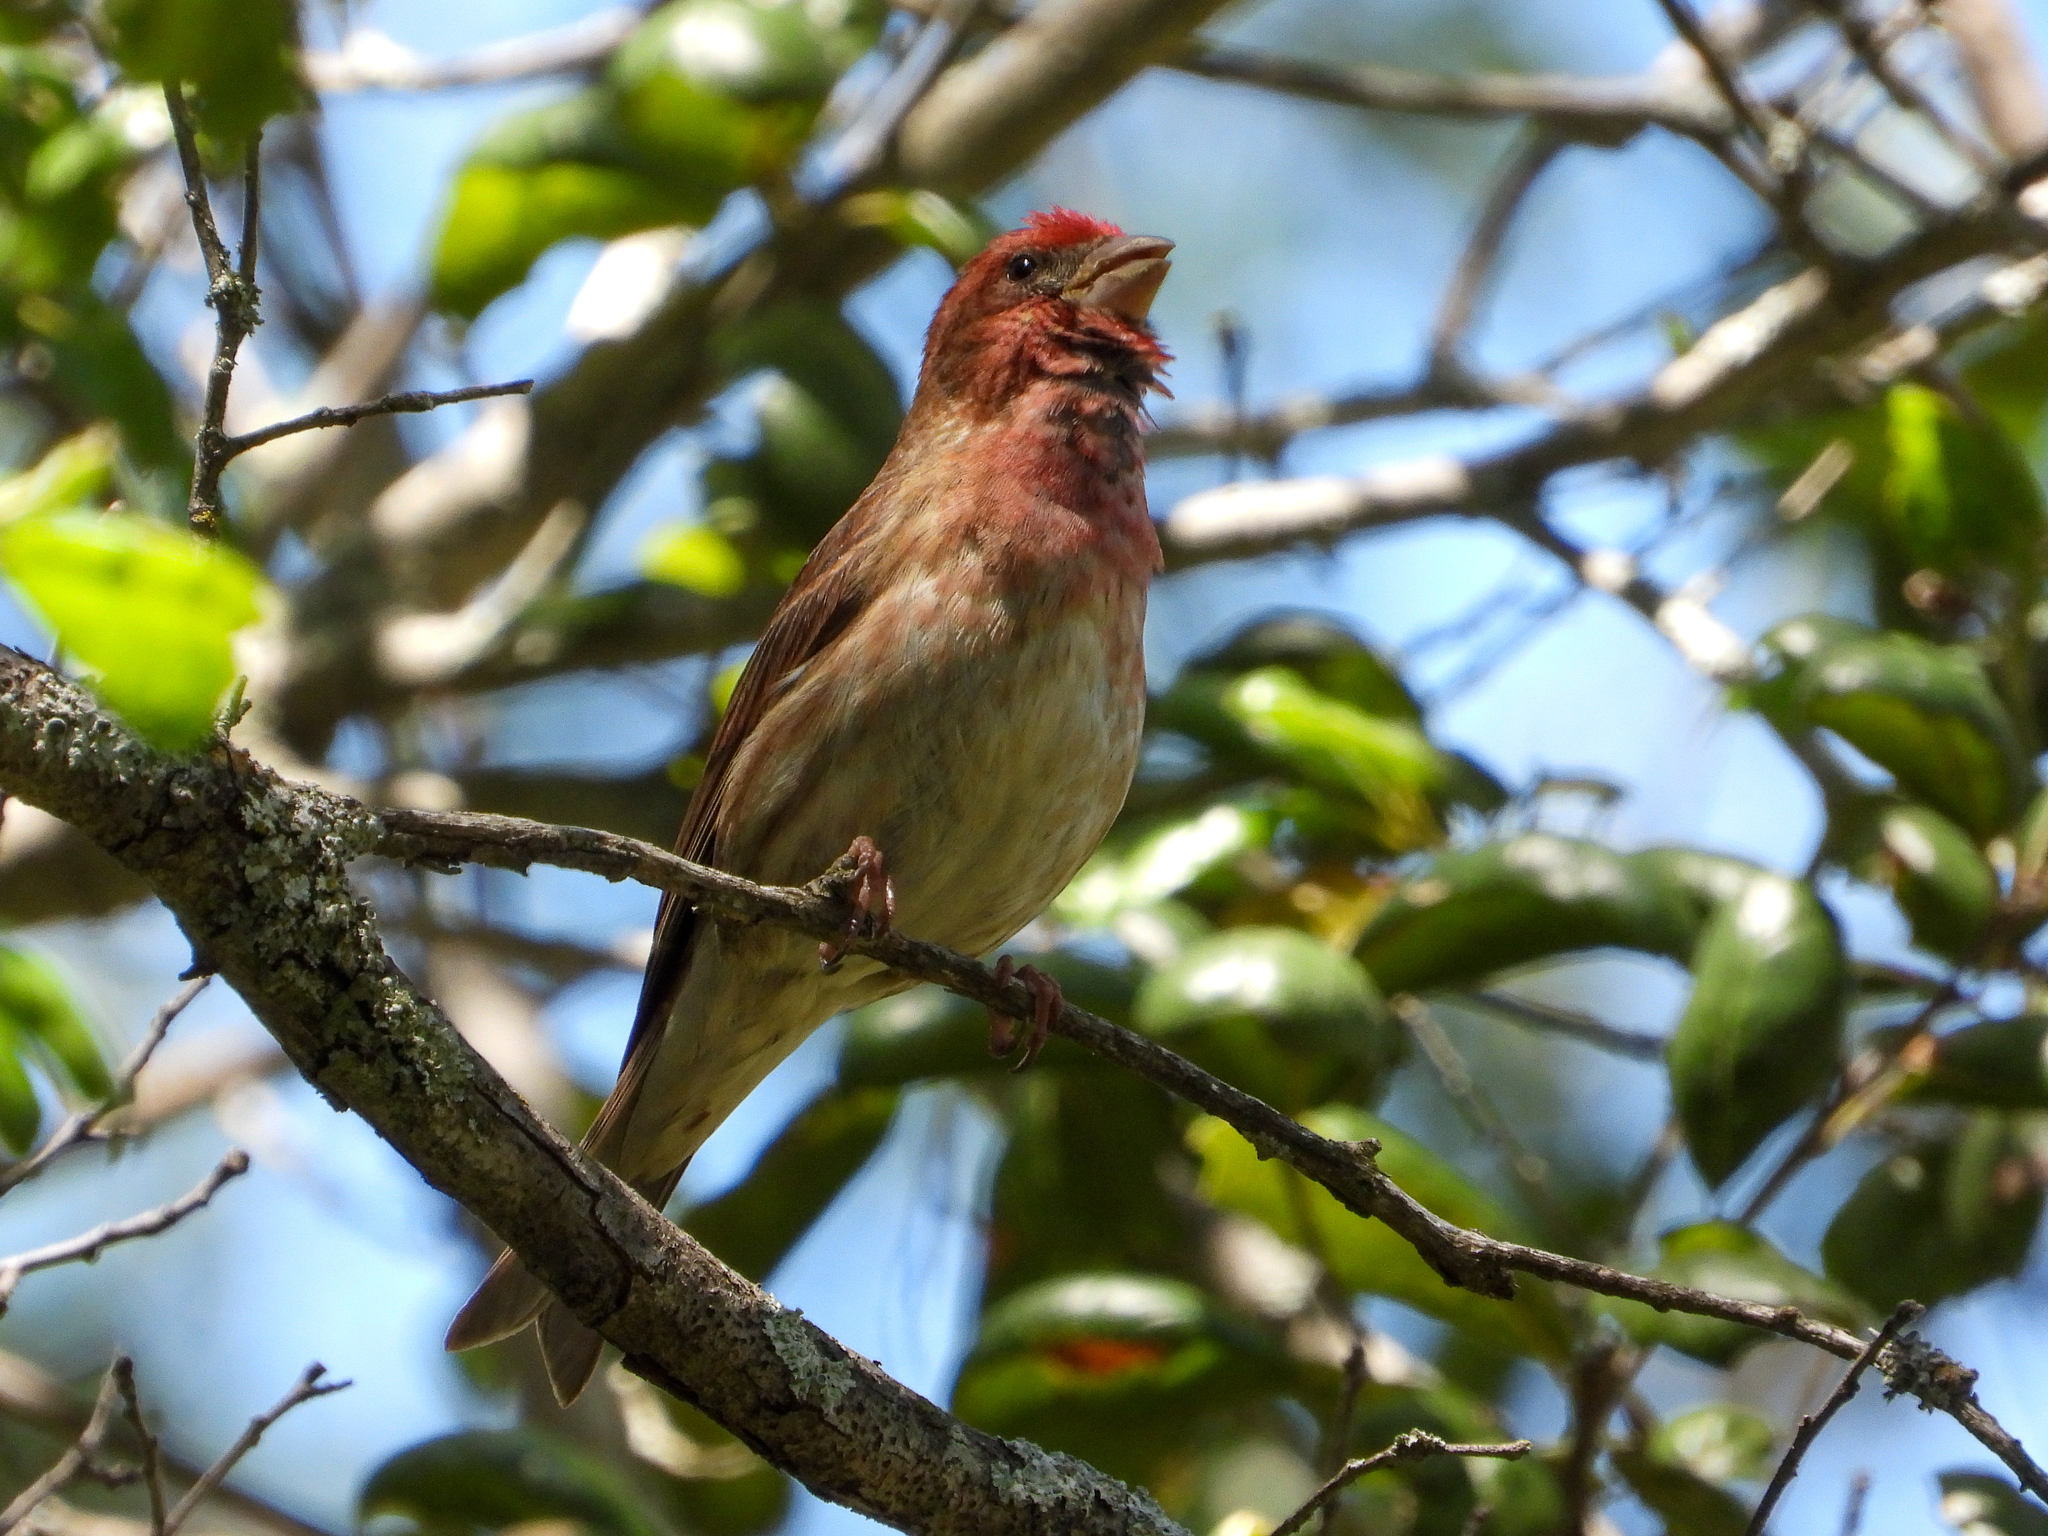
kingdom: Animalia
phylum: Chordata
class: Aves
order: Passeriformes
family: Fringillidae
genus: Haemorhous
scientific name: Haemorhous purpureus
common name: Purple finch
